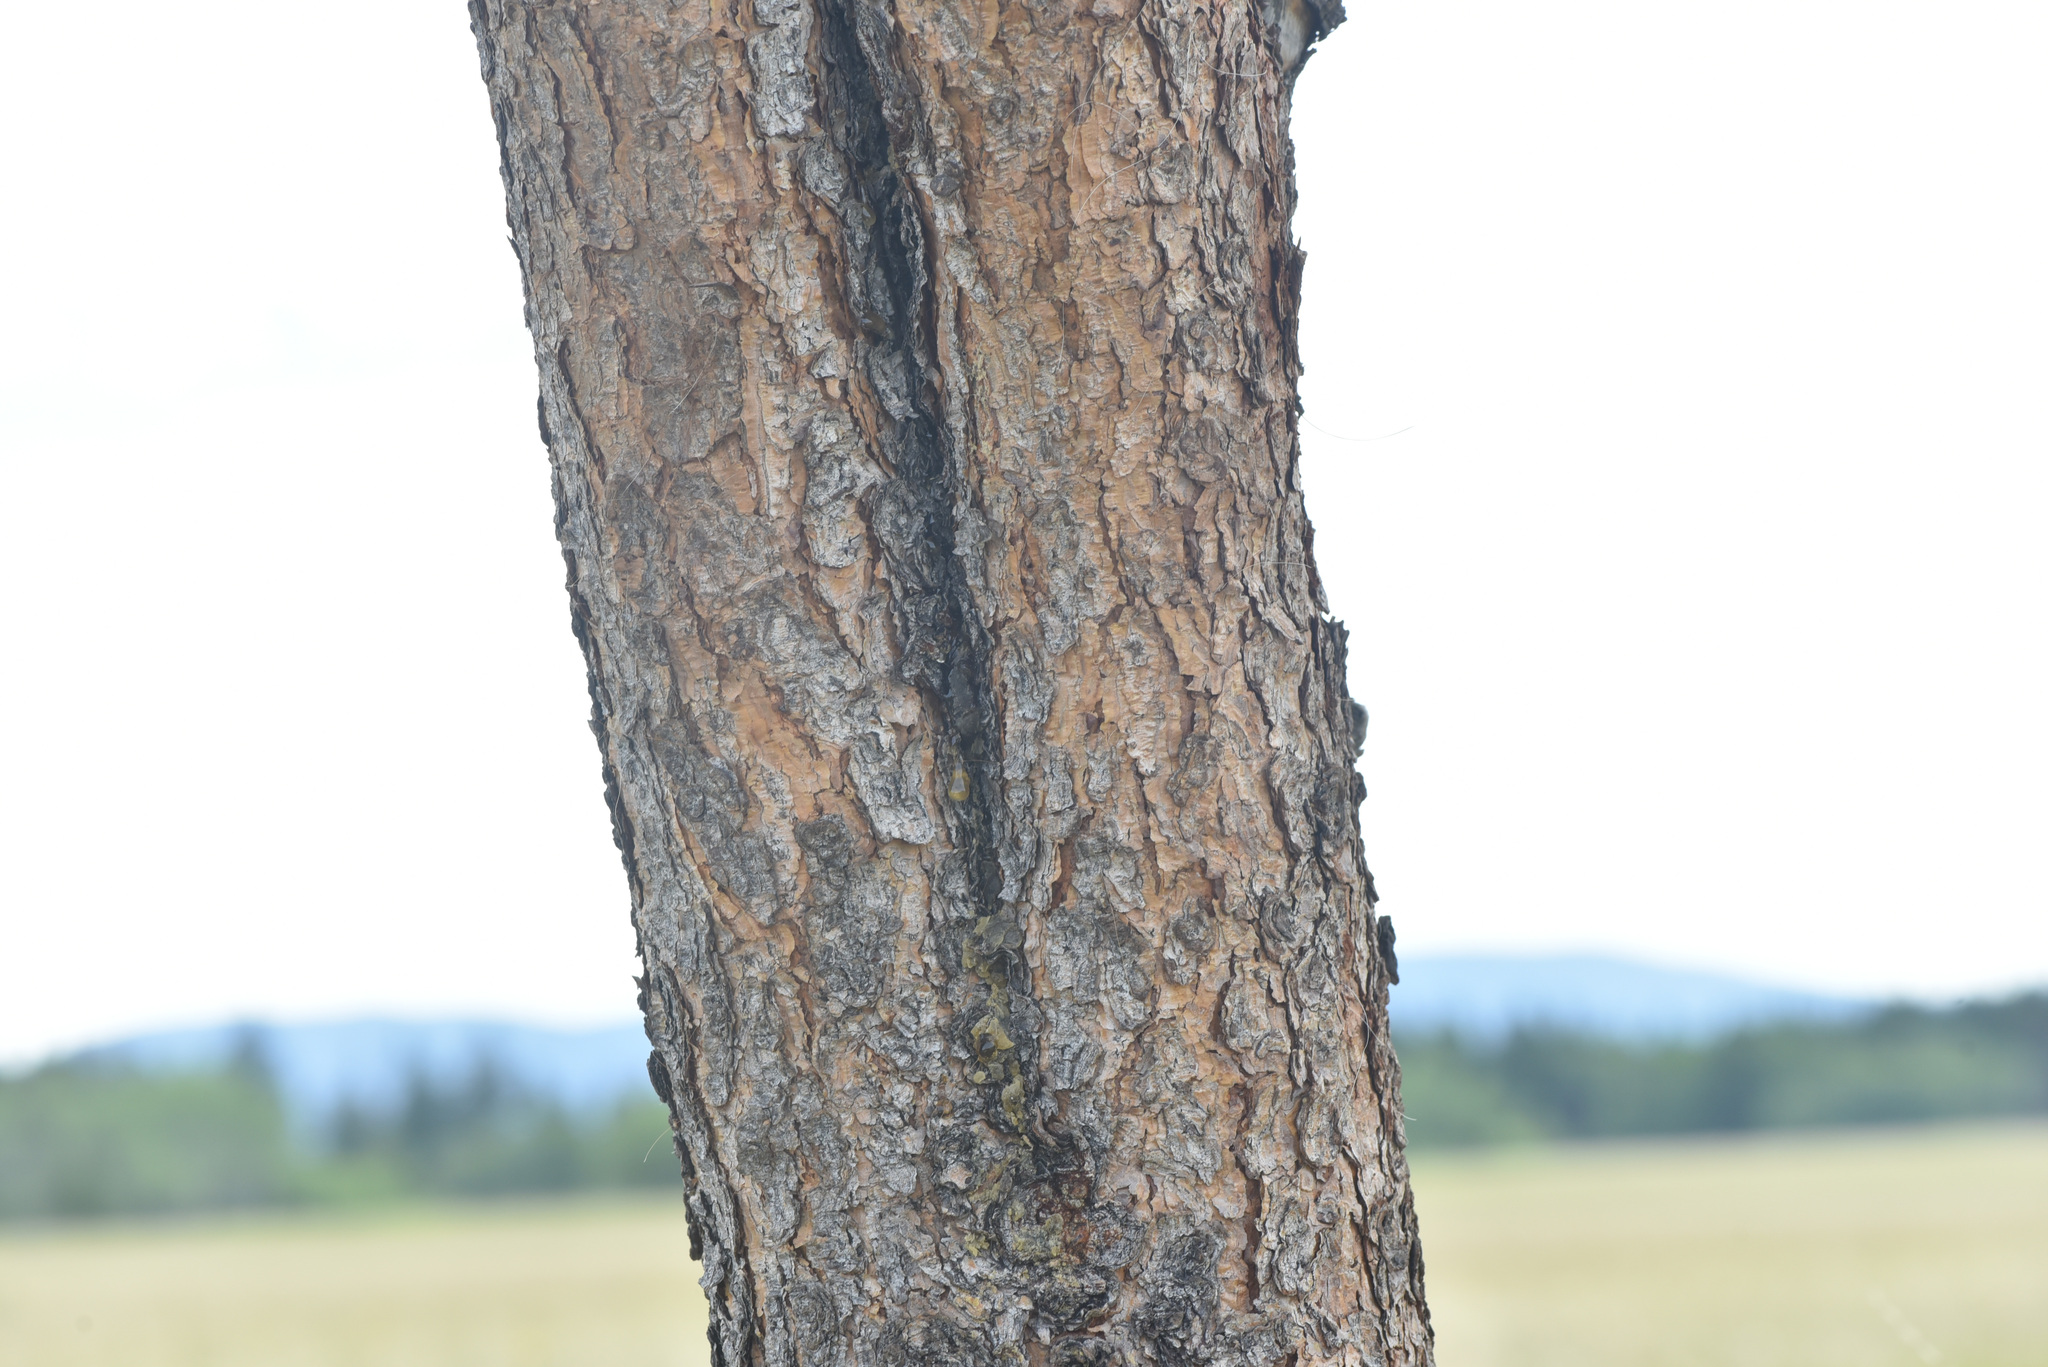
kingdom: Plantae
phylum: Tracheophyta
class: Pinopsida
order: Pinales
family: Pinaceae
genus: Pinus
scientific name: Pinus contorta
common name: Lodgepole pine
